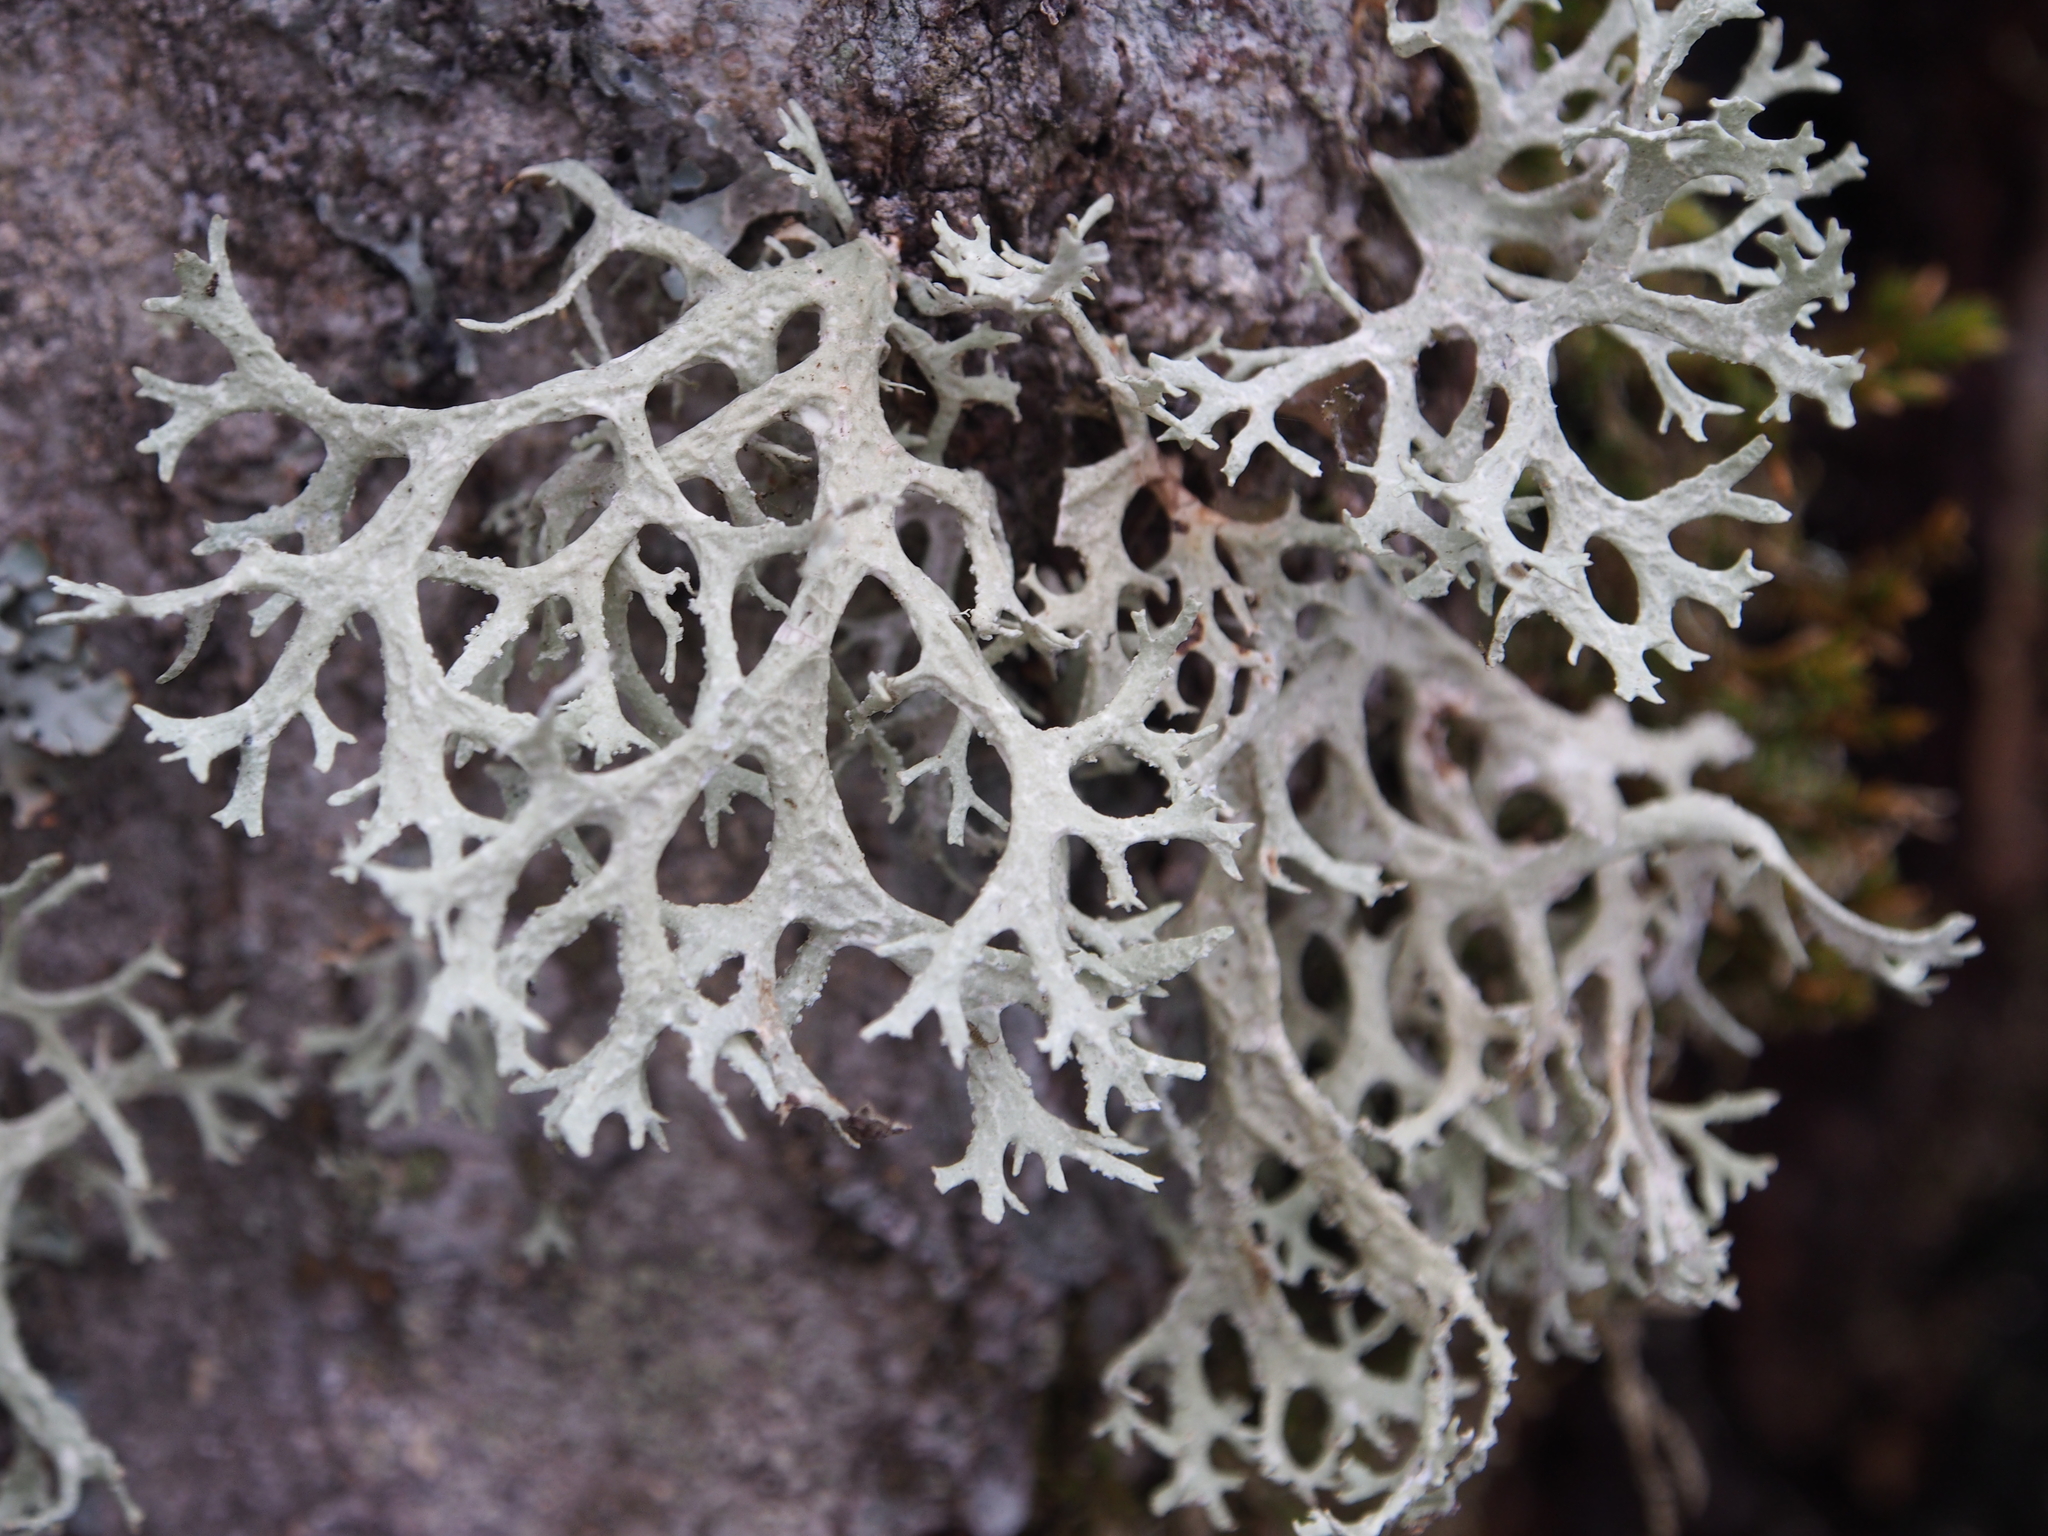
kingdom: Fungi
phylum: Ascomycota
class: Lecanoromycetes
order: Lecanorales
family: Parmeliaceae
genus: Evernia
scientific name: Evernia prunastri
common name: Oak moss
